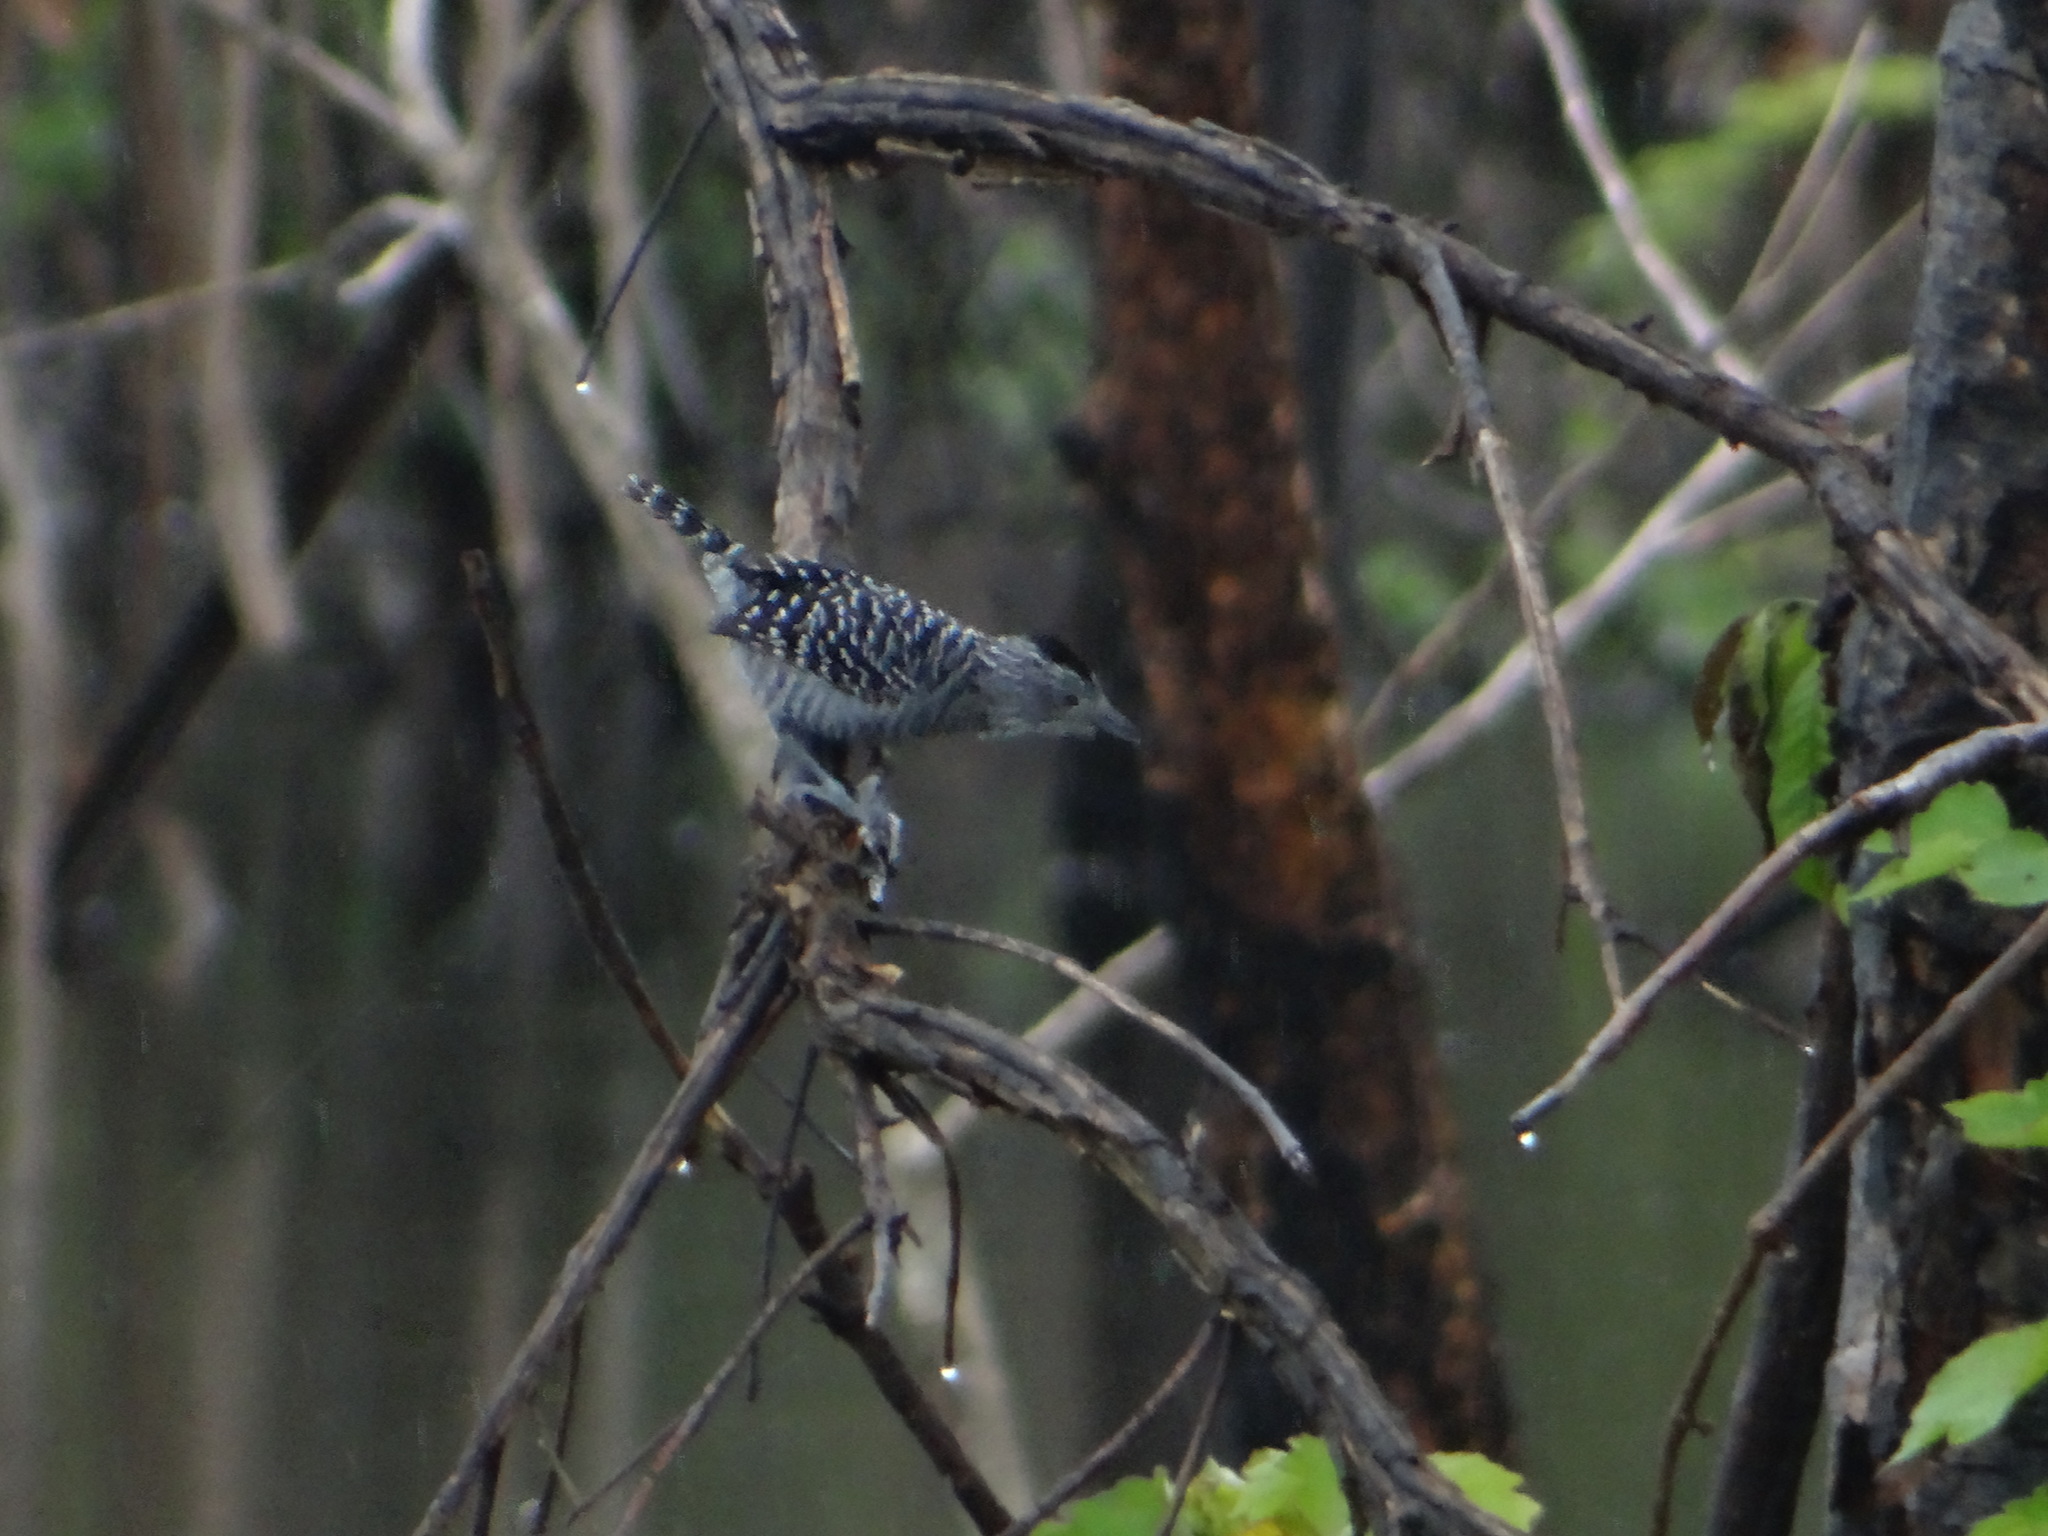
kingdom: Animalia
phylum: Chordata
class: Aves
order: Passeriformes
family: Thamnophilidae
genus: Thamnophilus
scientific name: Thamnophilus doliatus
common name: Barred antshrike
